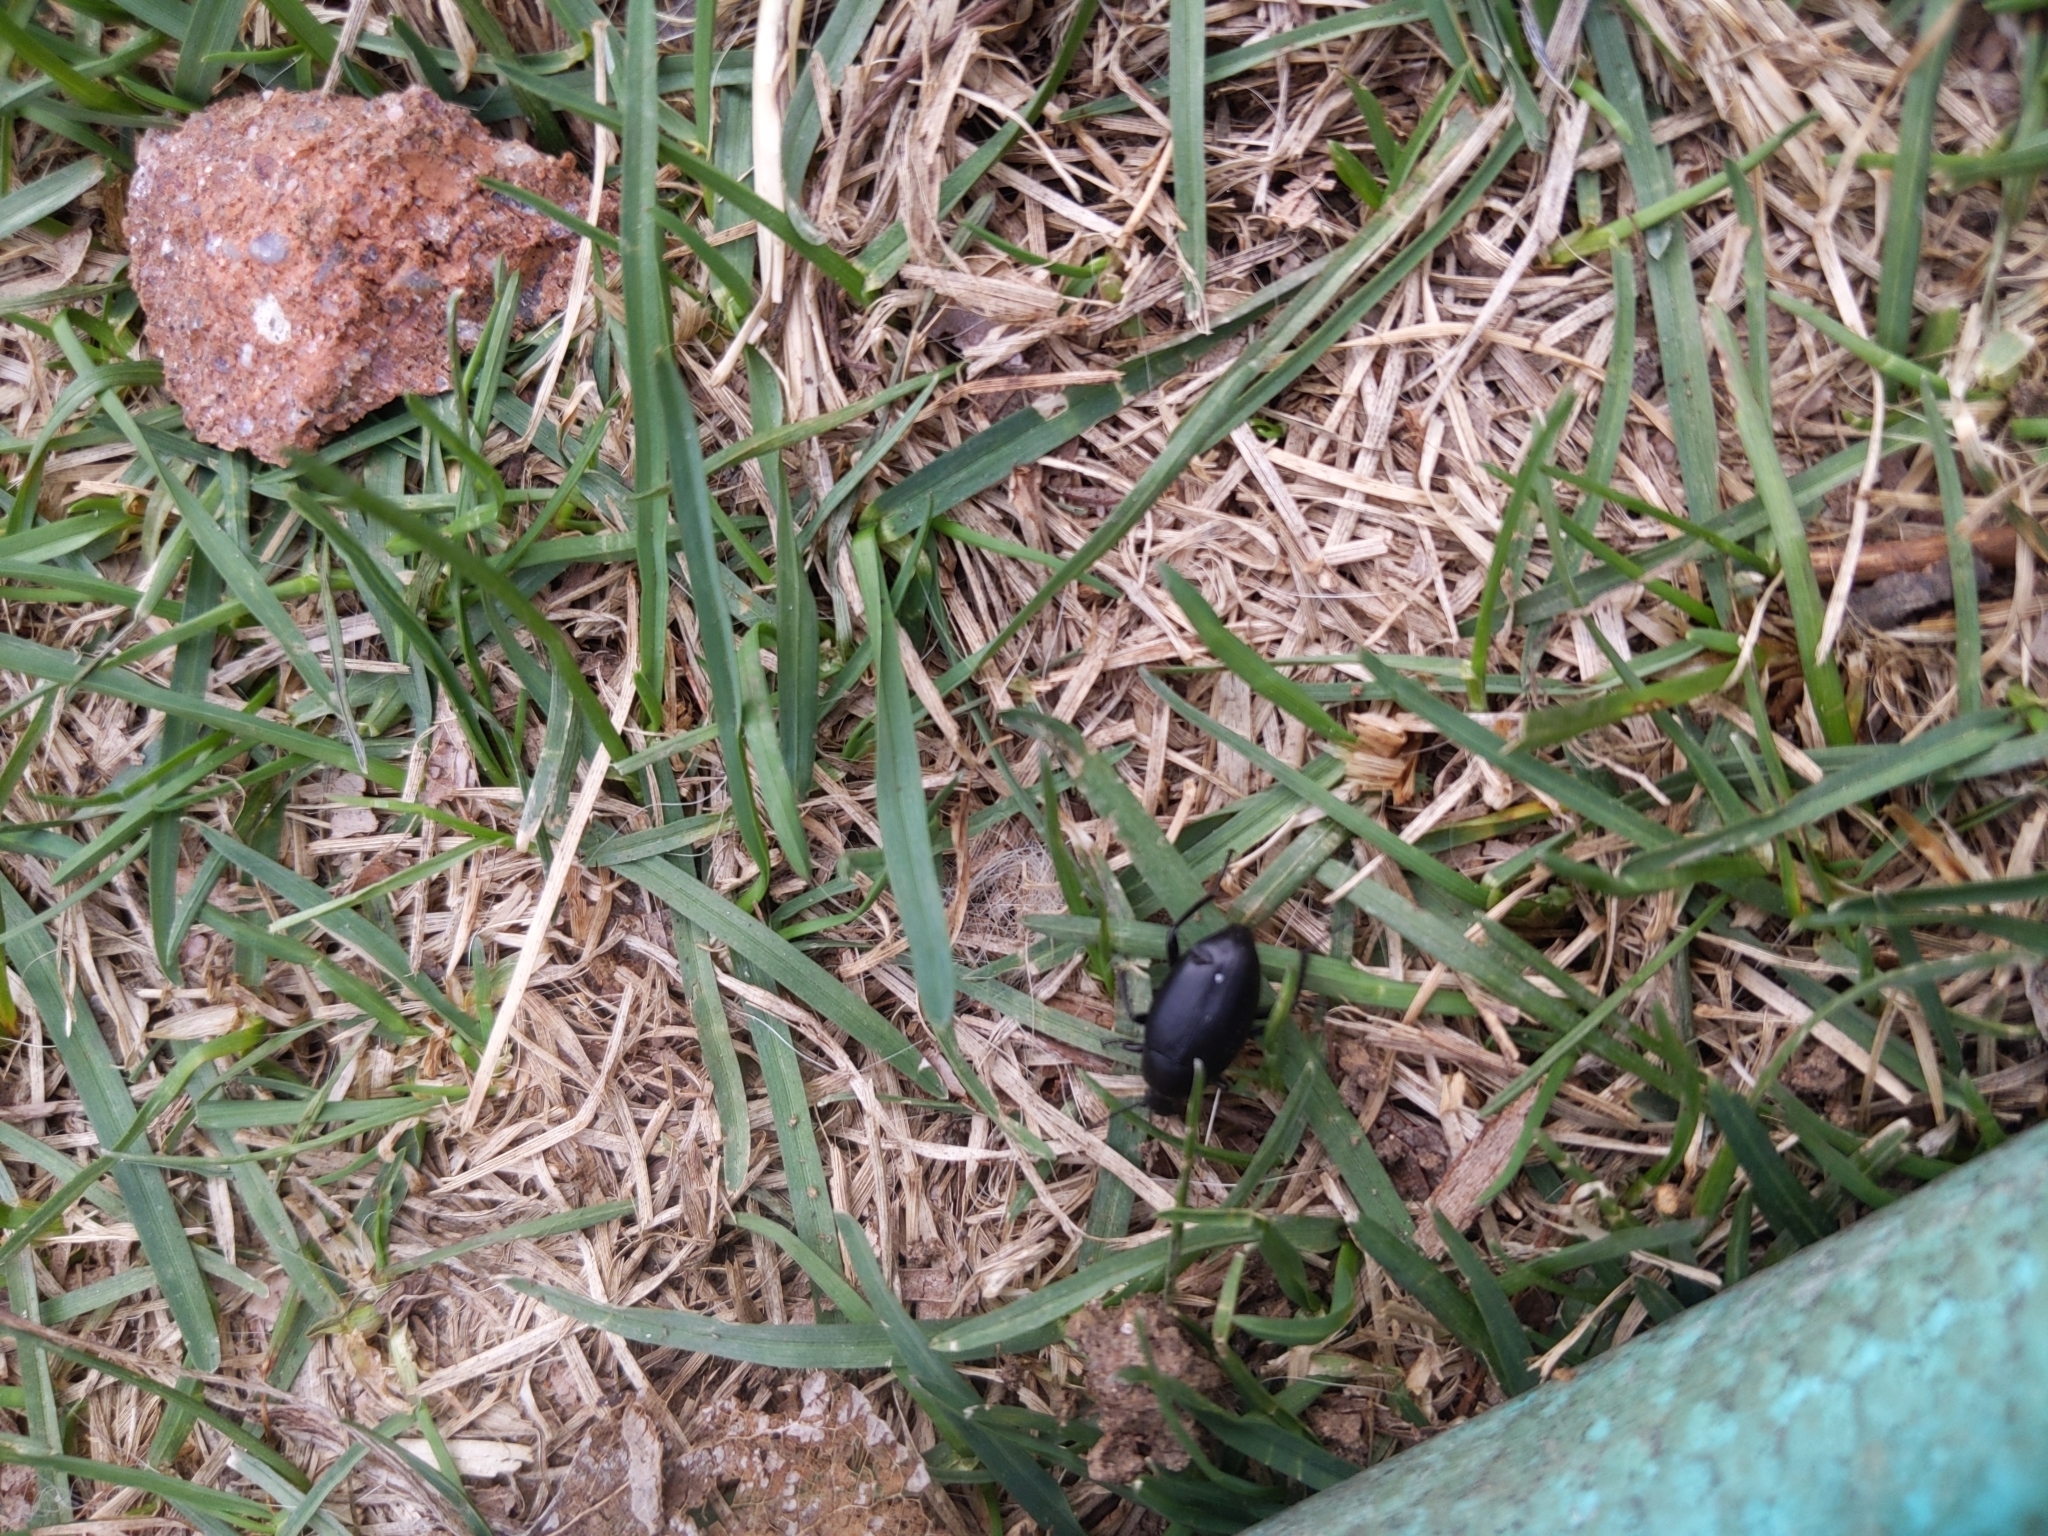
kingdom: Animalia
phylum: Arthropoda
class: Insecta
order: Coleoptera
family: Tenebrionidae
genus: Eleodes
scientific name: Eleodes fusiformis
